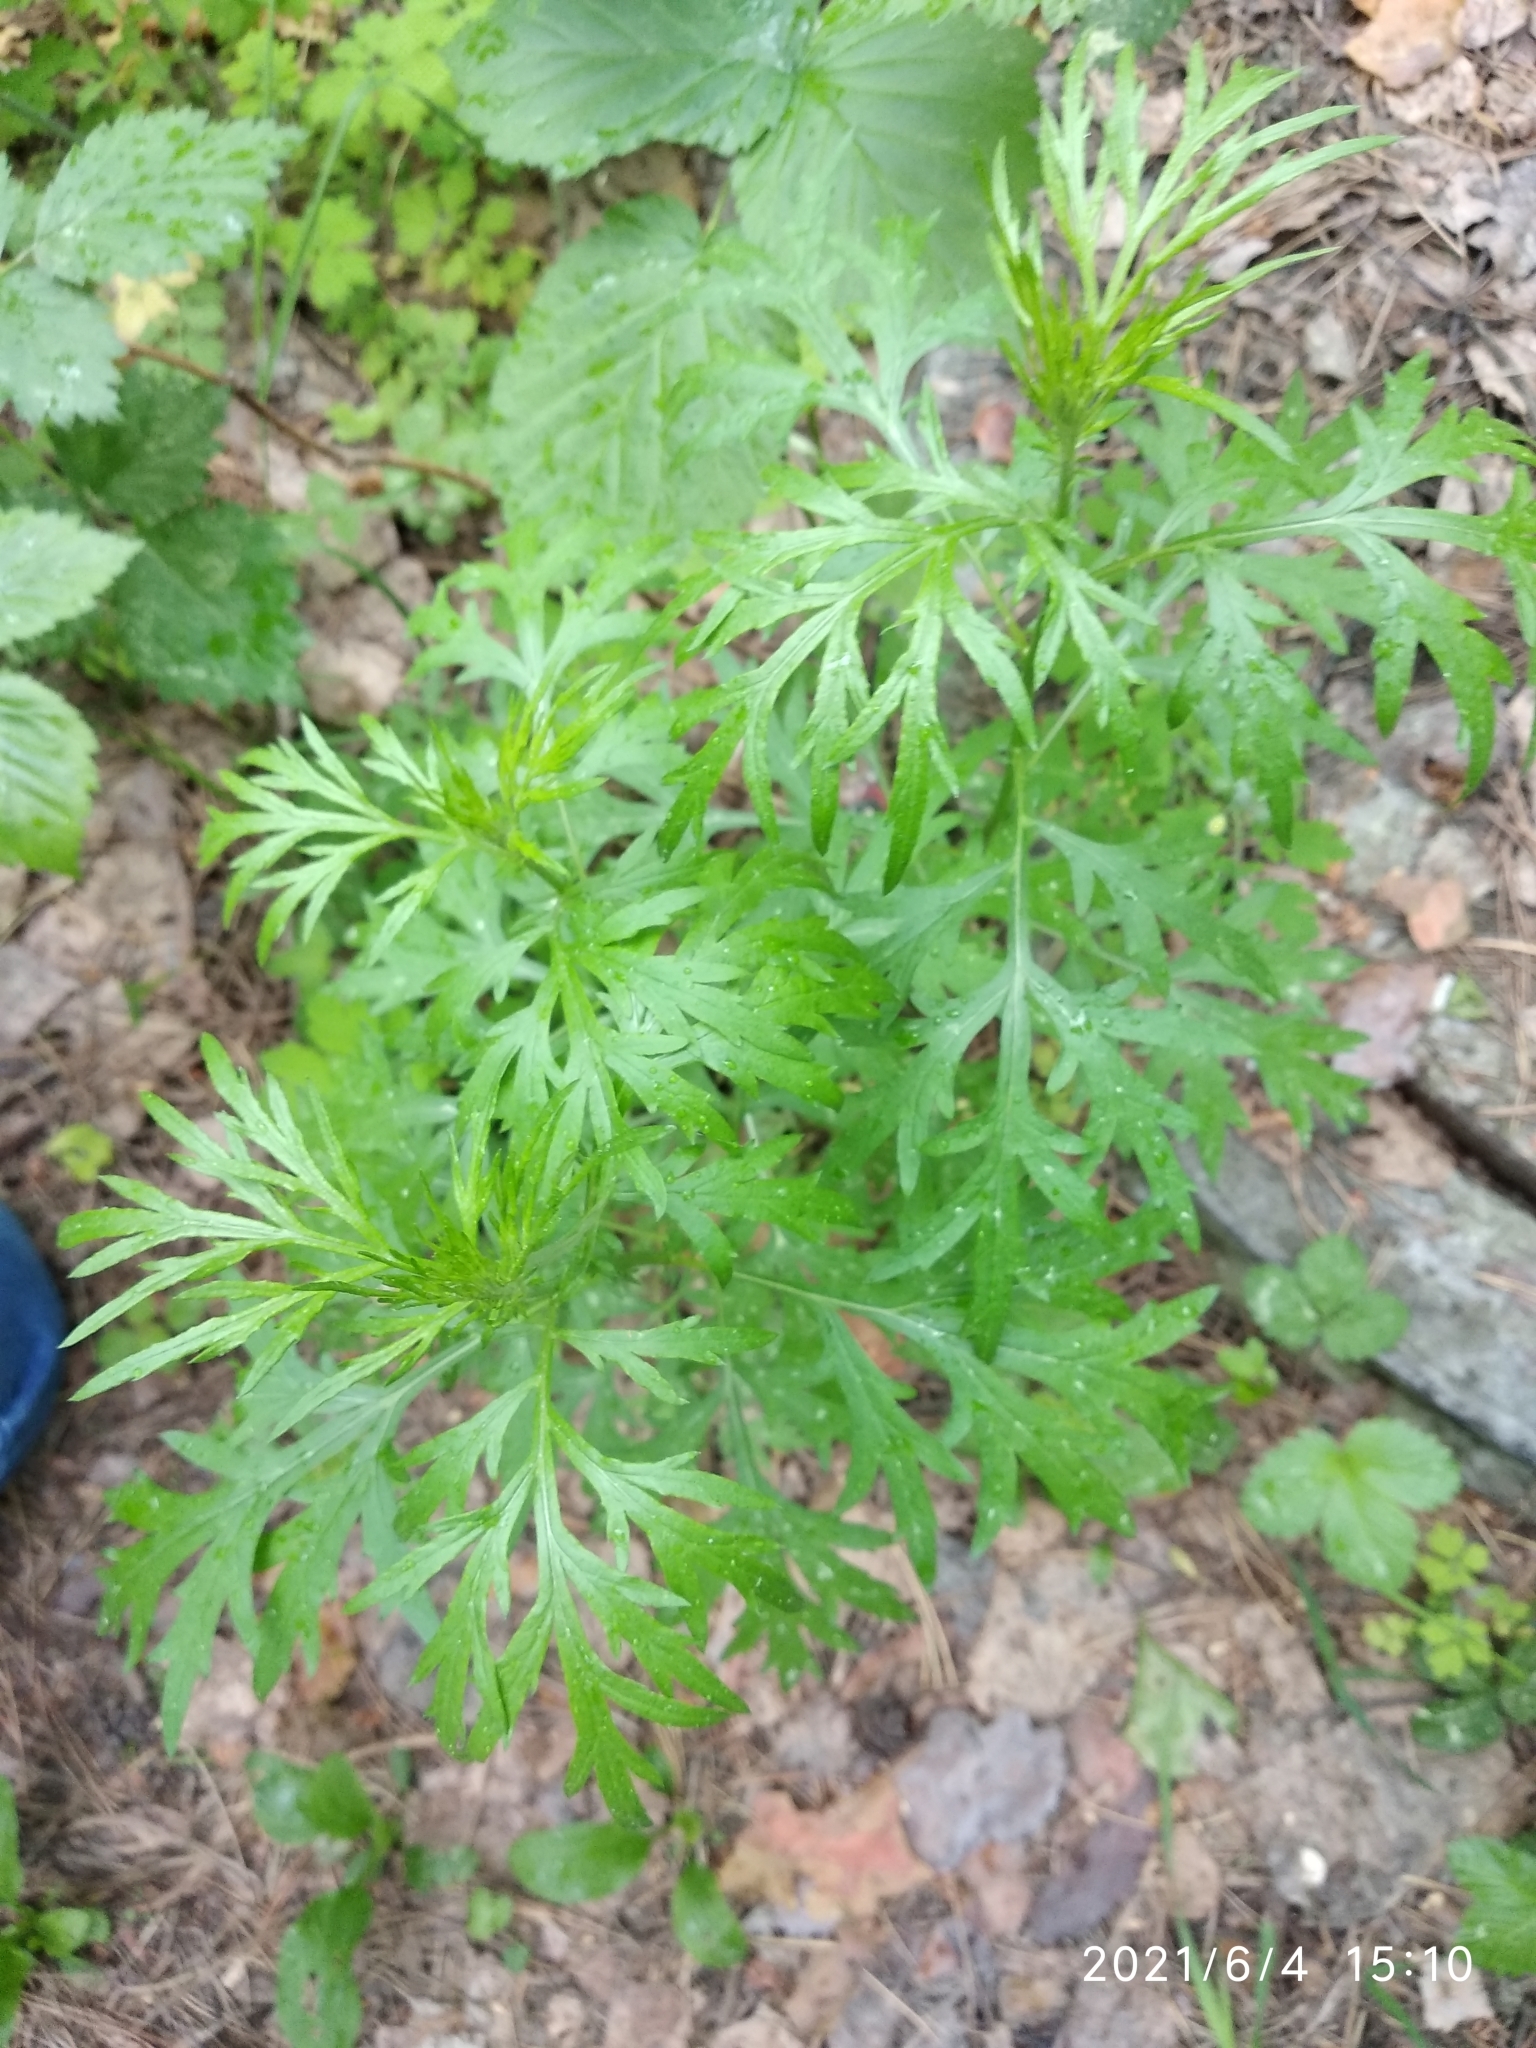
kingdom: Plantae
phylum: Tracheophyta
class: Magnoliopsida
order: Asterales
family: Asteraceae
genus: Artemisia
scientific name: Artemisia vulgaris
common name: Mugwort
